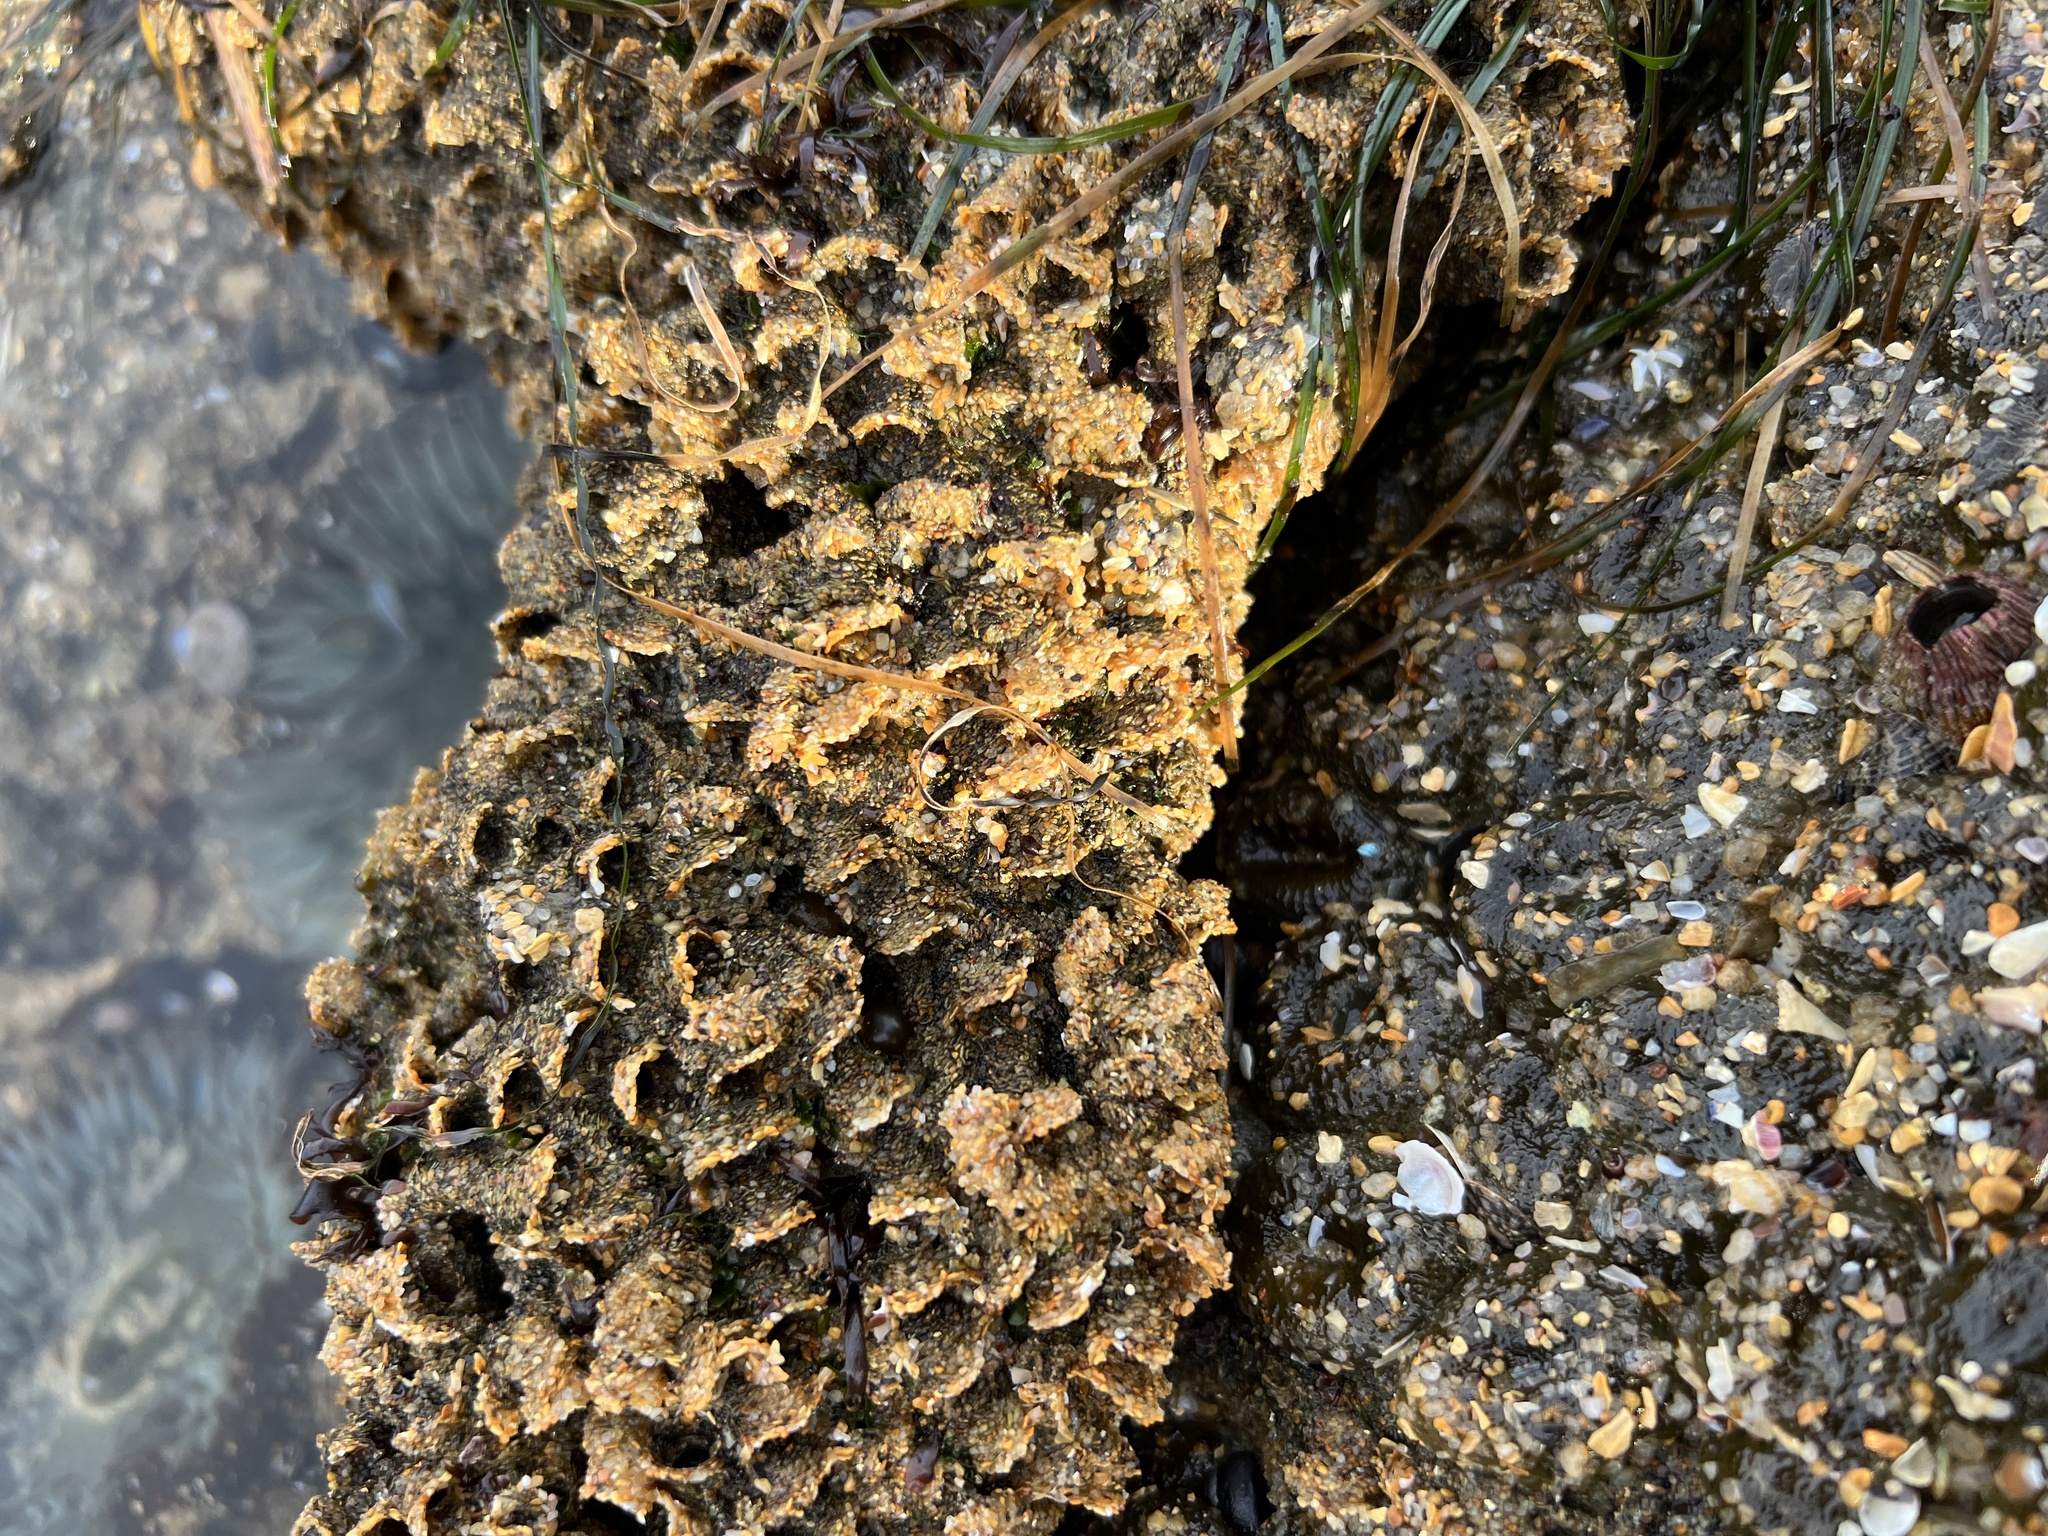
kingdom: Animalia
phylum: Annelida
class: Polychaeta
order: Sabellida
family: Sabellariidae
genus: Phragmatopoma
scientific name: Phragmatopoma californica
